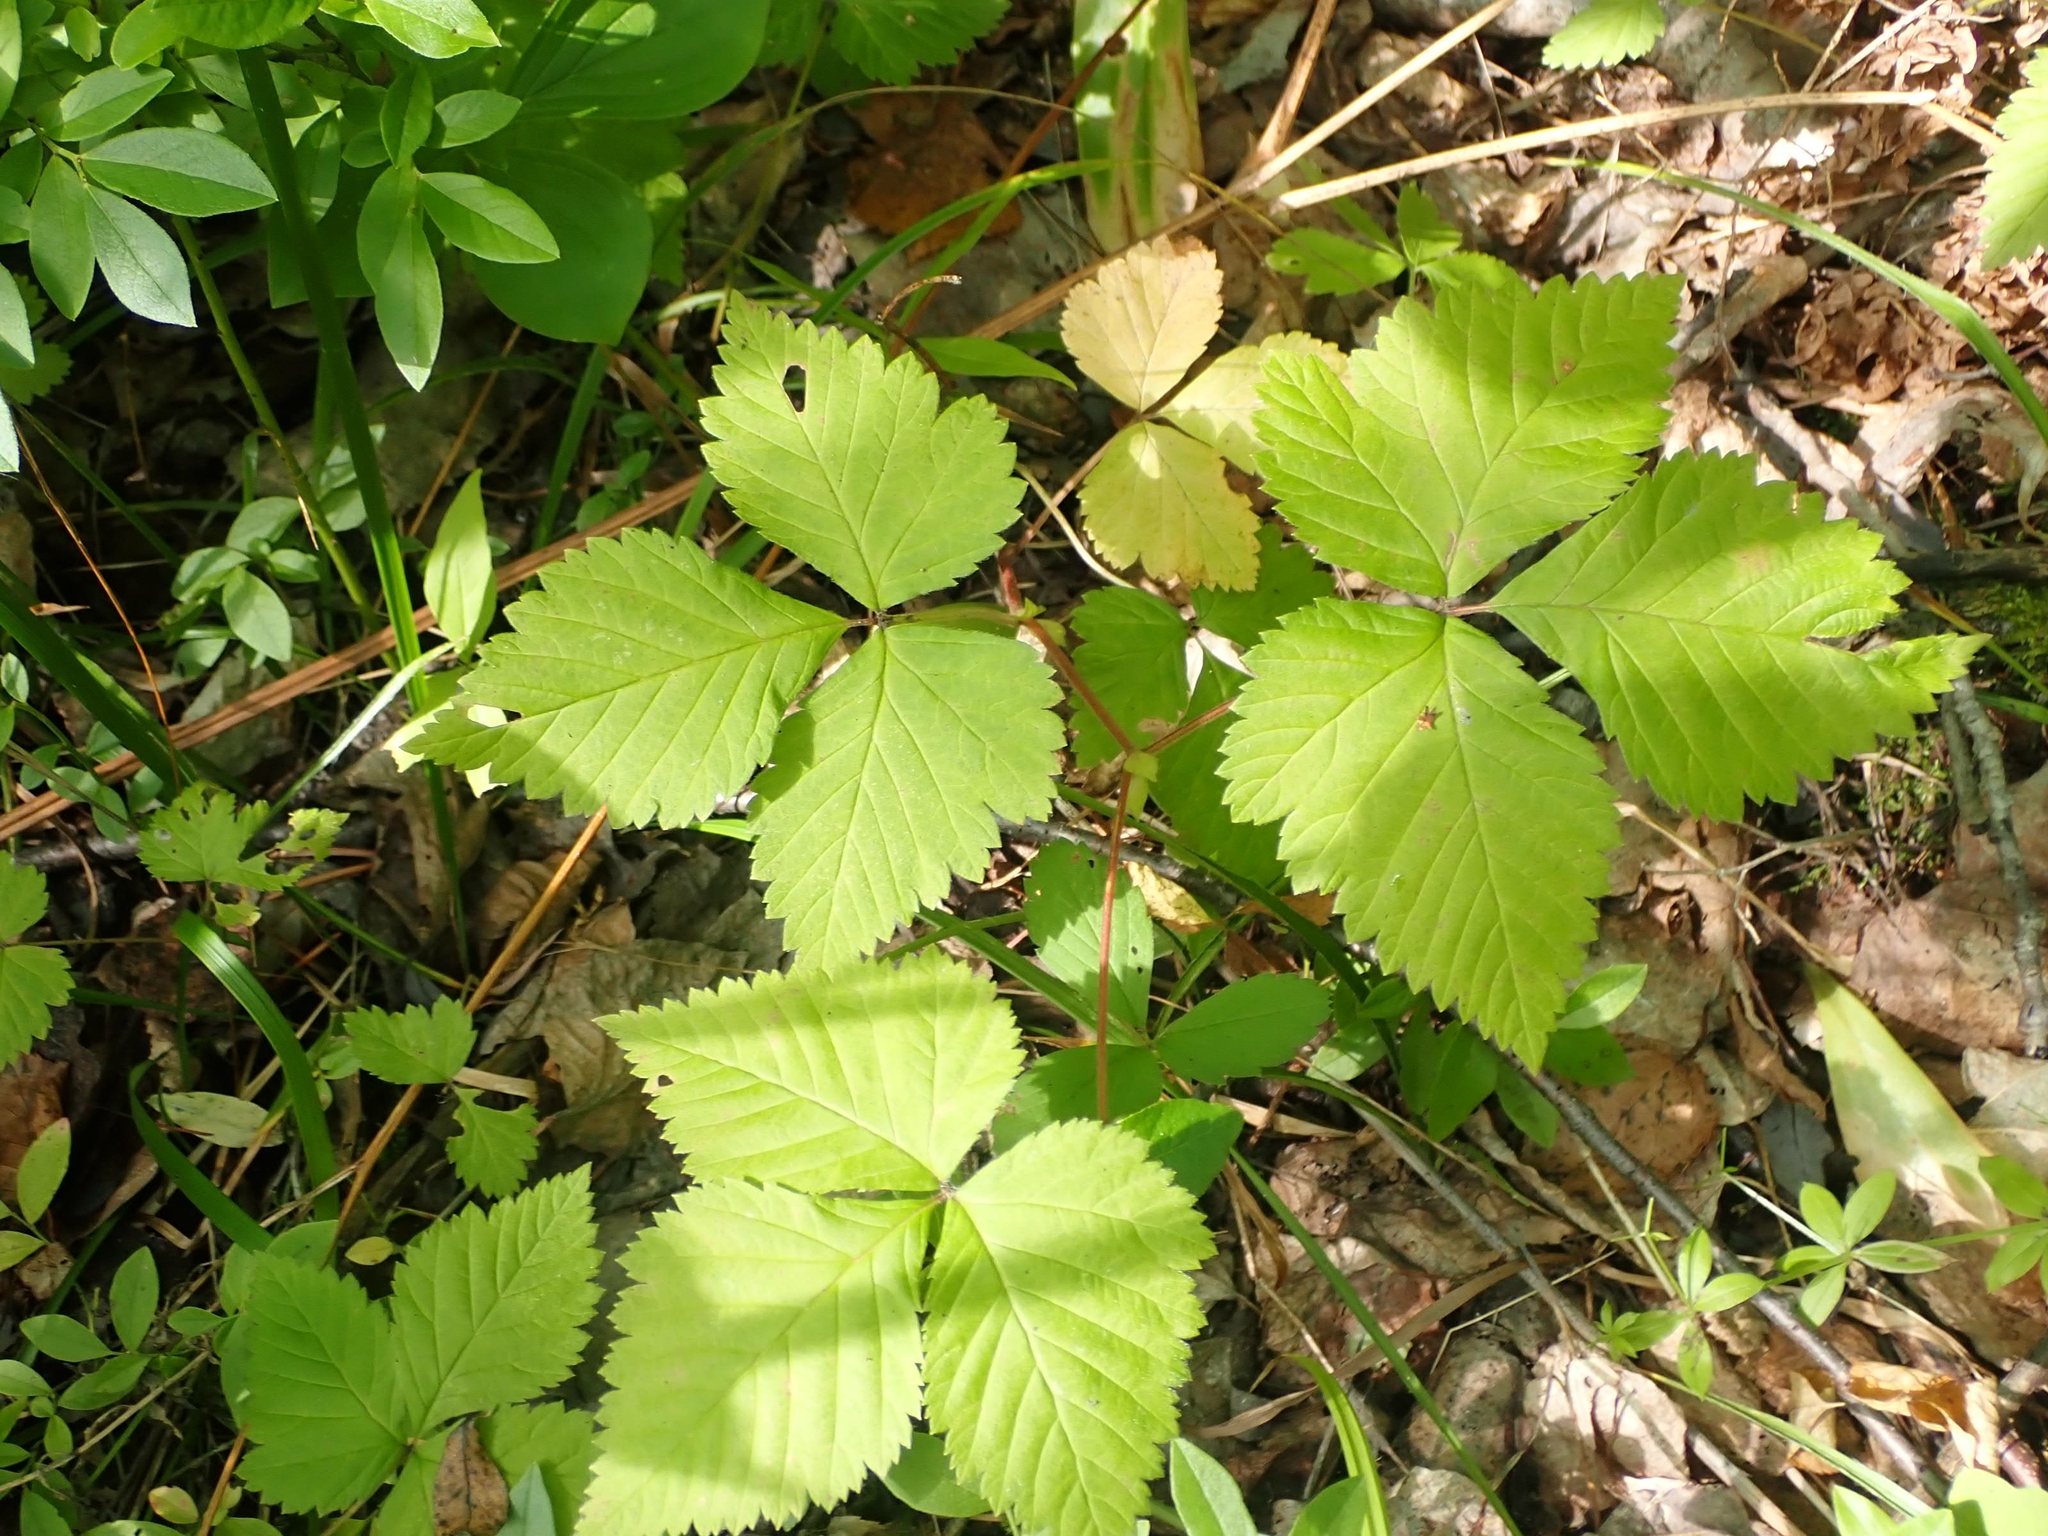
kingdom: Plantae
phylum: Tracheophyta
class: Magnoliopsida
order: Rosales
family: Rosaceae
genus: Rubus
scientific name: Rubus pubescens
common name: Dwarf raspberry
